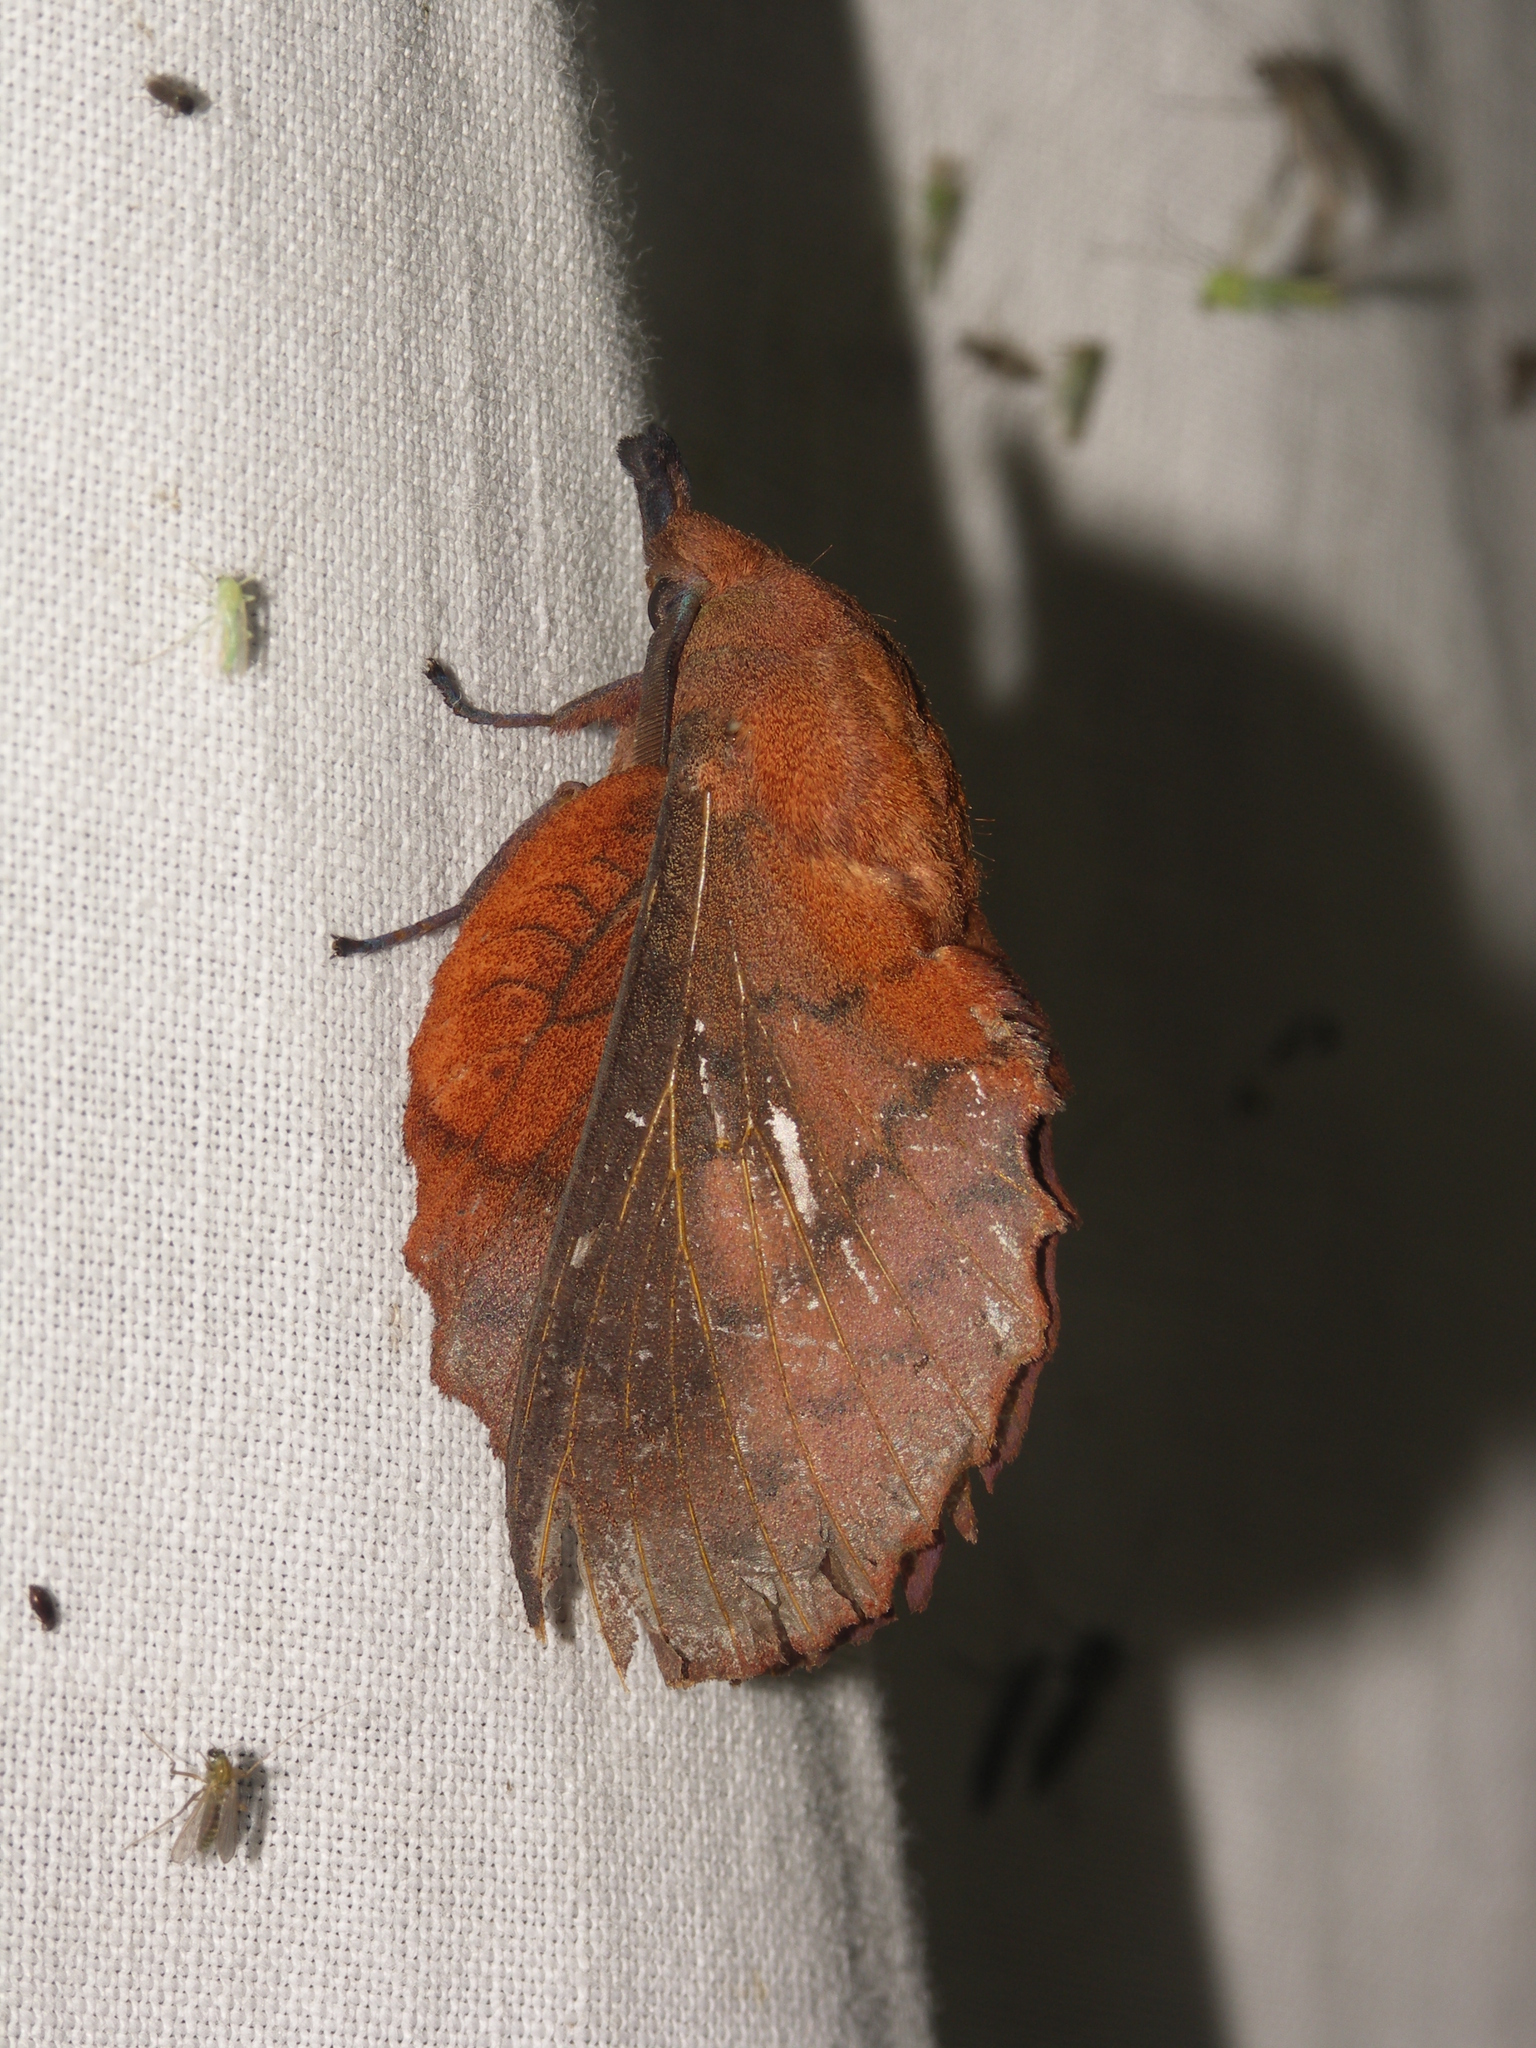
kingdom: Animalia
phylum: Arthropoda
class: Insecta
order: Lepidoptera
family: Lasiocampidae
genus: Gastropacha
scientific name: Gastropacha quercifolia
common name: Lappet
